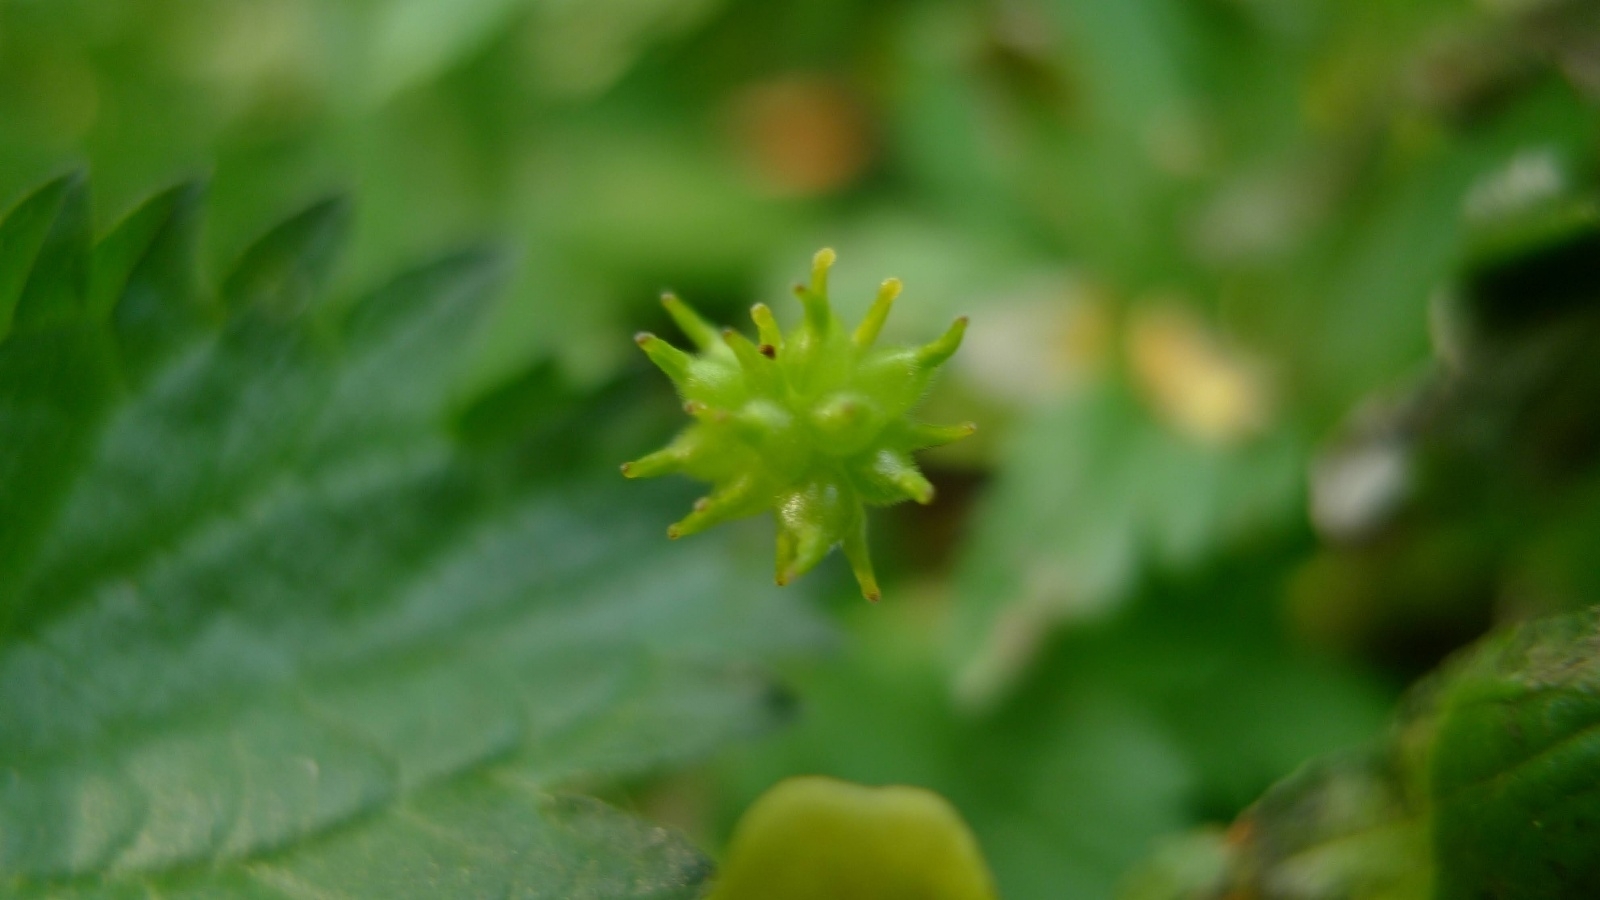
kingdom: Plantae
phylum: Tracheophyta
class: Magnoliopsida
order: Ranunculales
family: Ranunculaceae
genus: Anemone
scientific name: Anemone ranunculoides
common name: Yellow anemone
